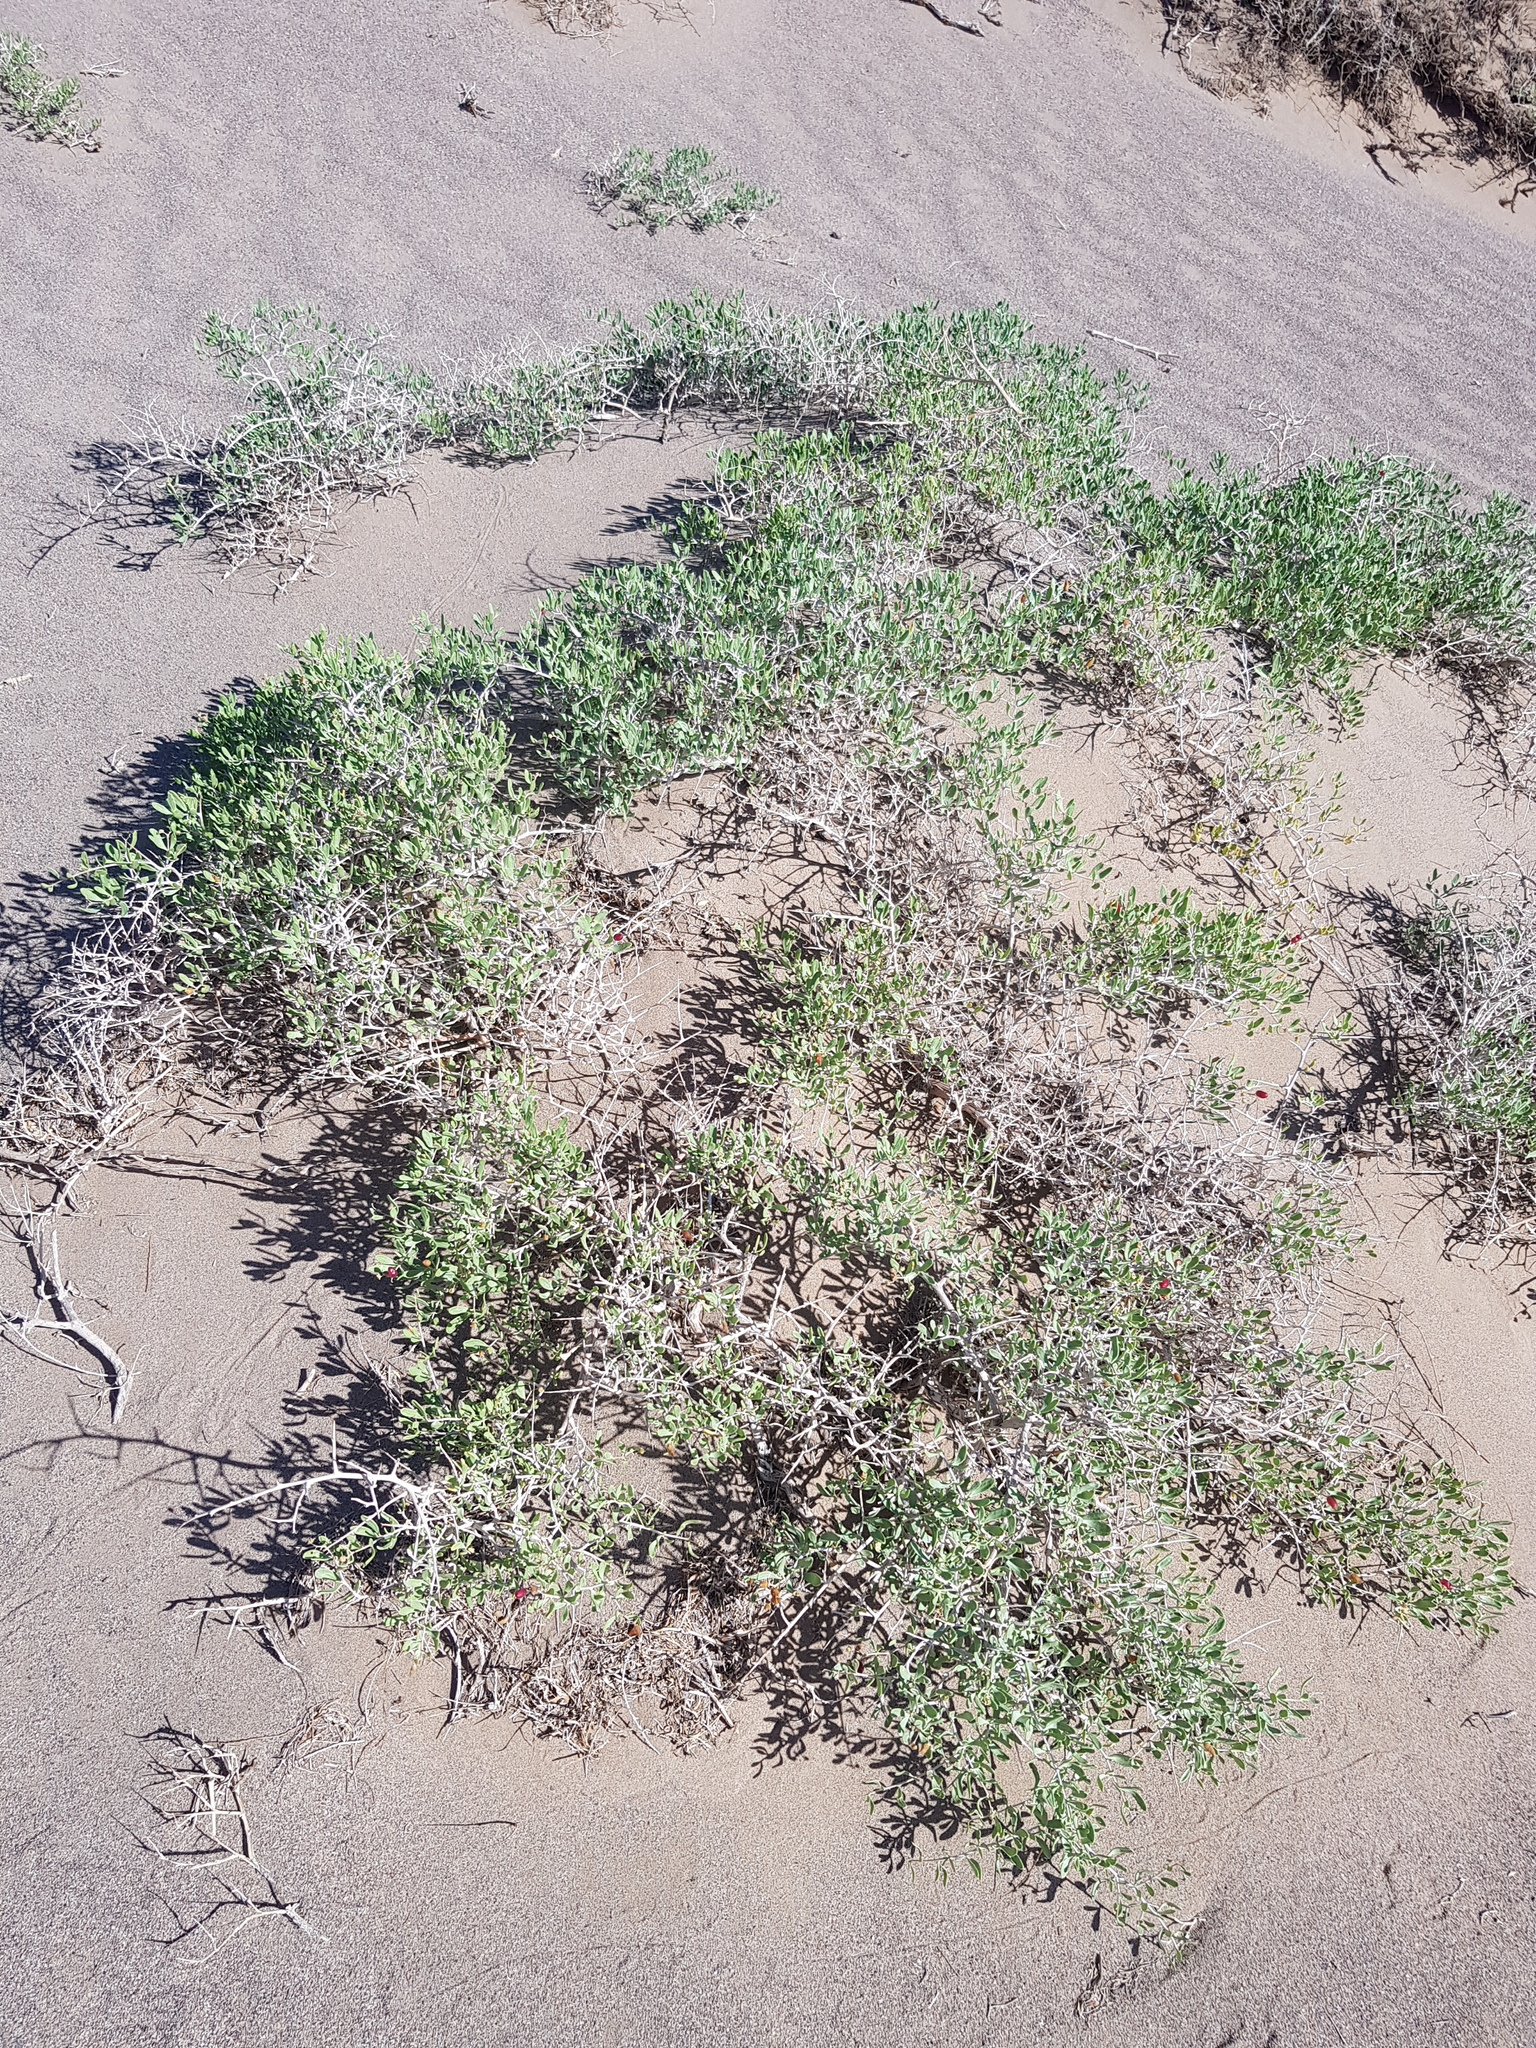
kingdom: Plantae
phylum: Tracheophyta
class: Magnoliopsida
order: Sapindales
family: Nitrariaceae
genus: Nitraria
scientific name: Nitraria sibirica
